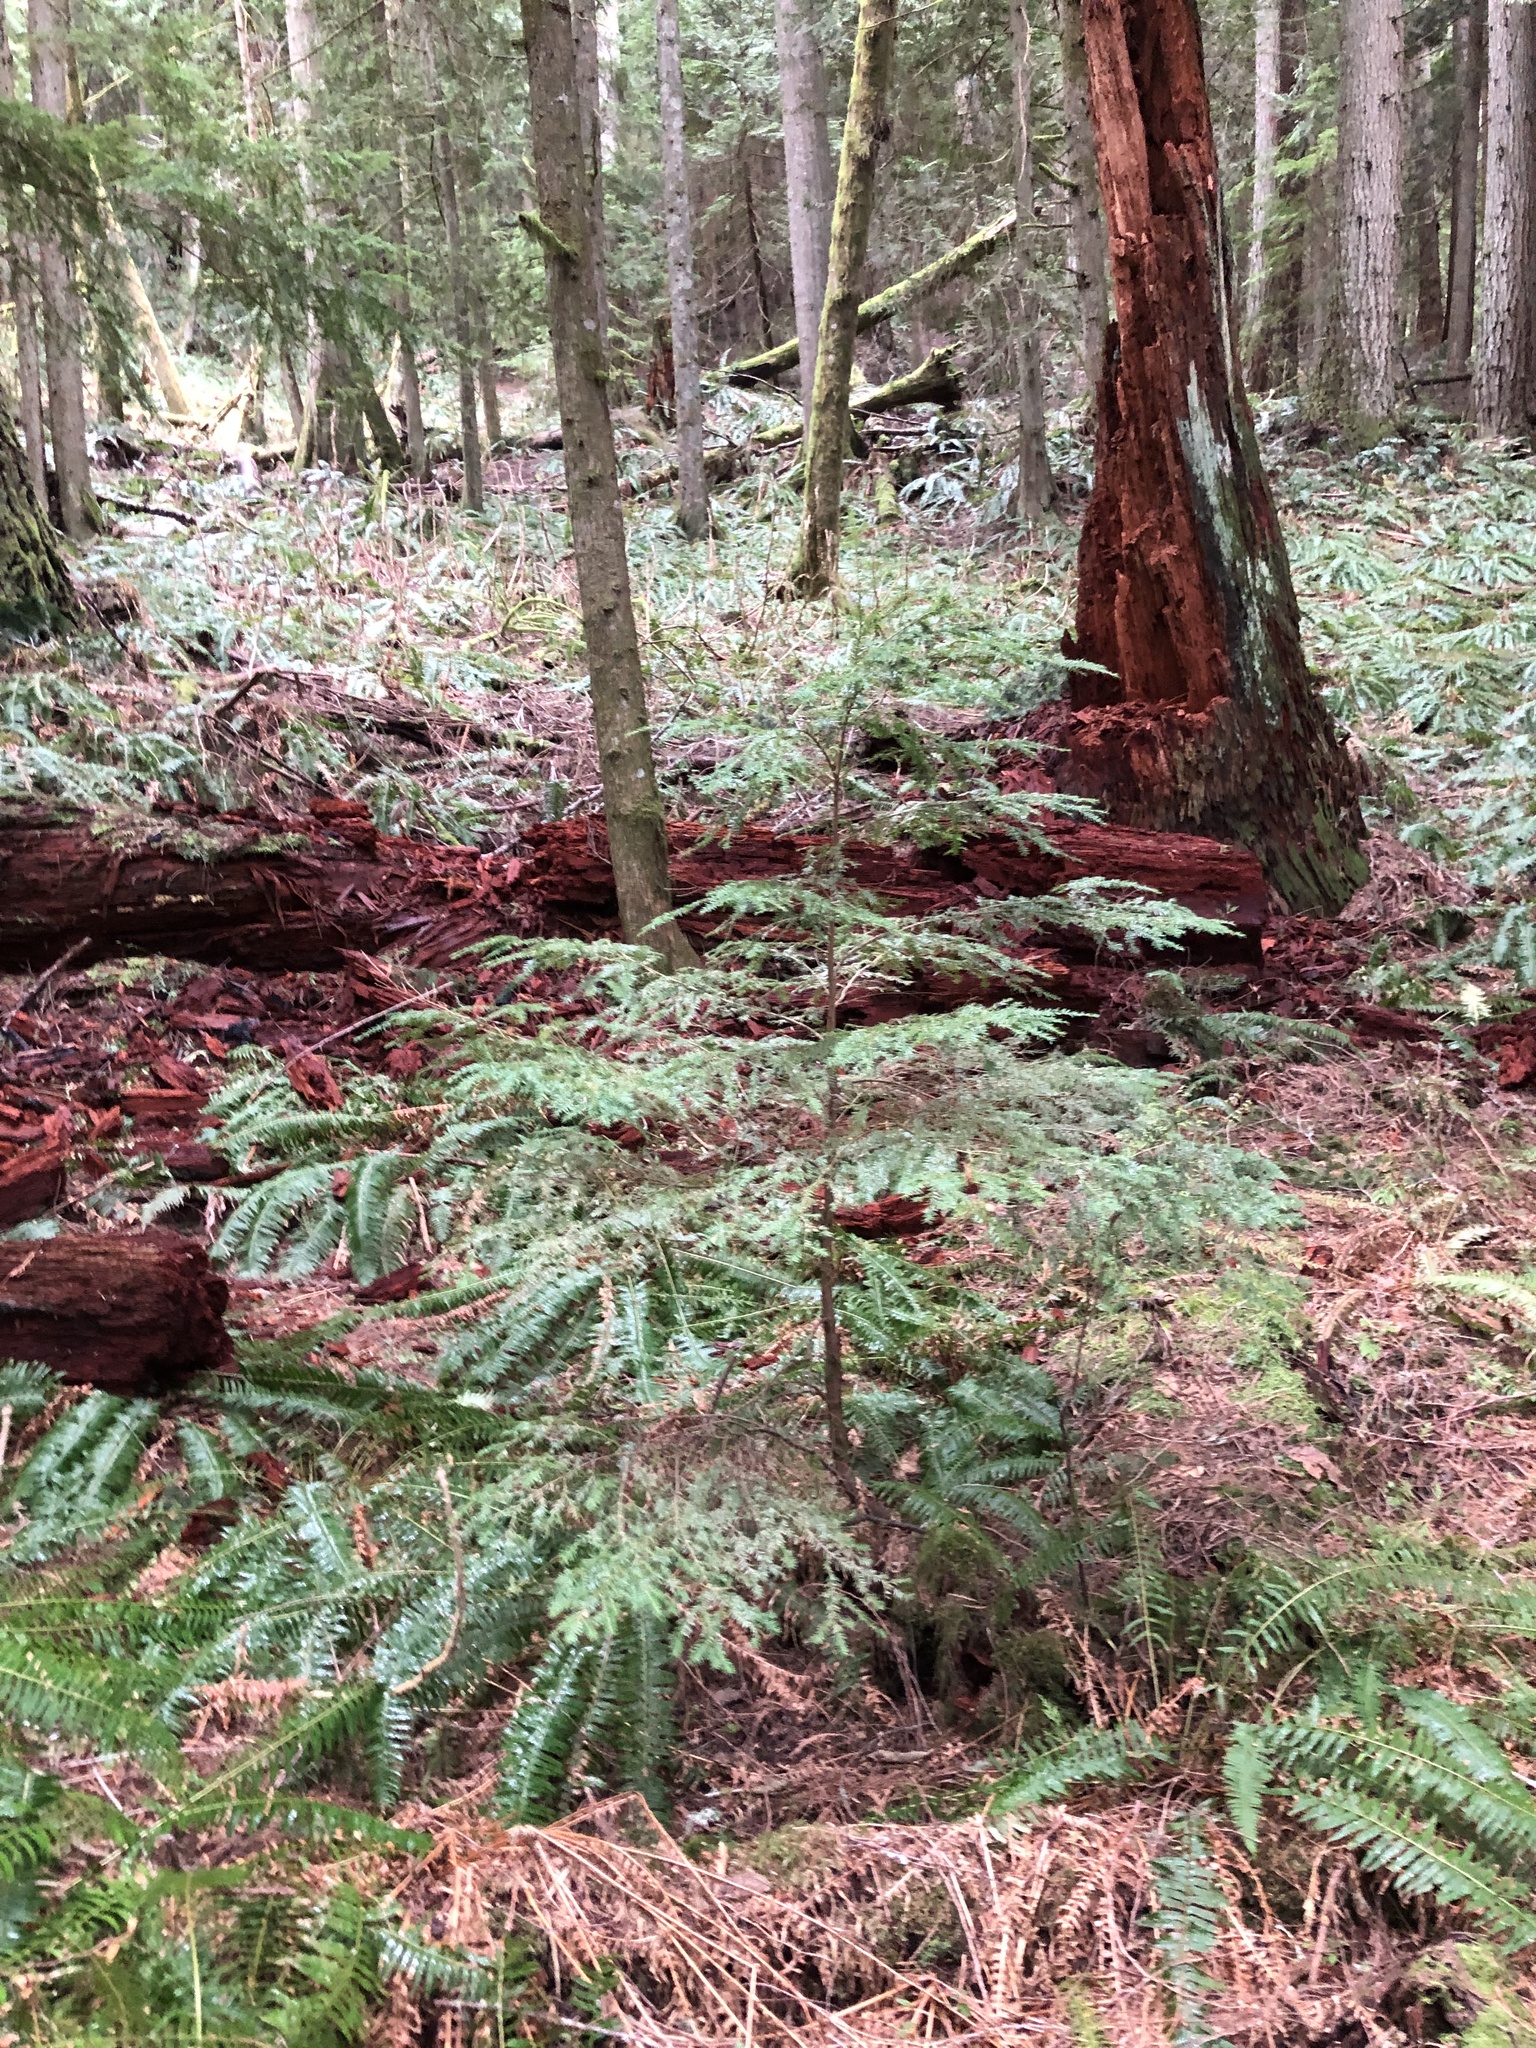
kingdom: Plantae
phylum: Tracheophyta
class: Pinopsida
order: Pinales
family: Pinaceae
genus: Tsuga
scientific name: Tsuga heterophylla
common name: Western hemlock
